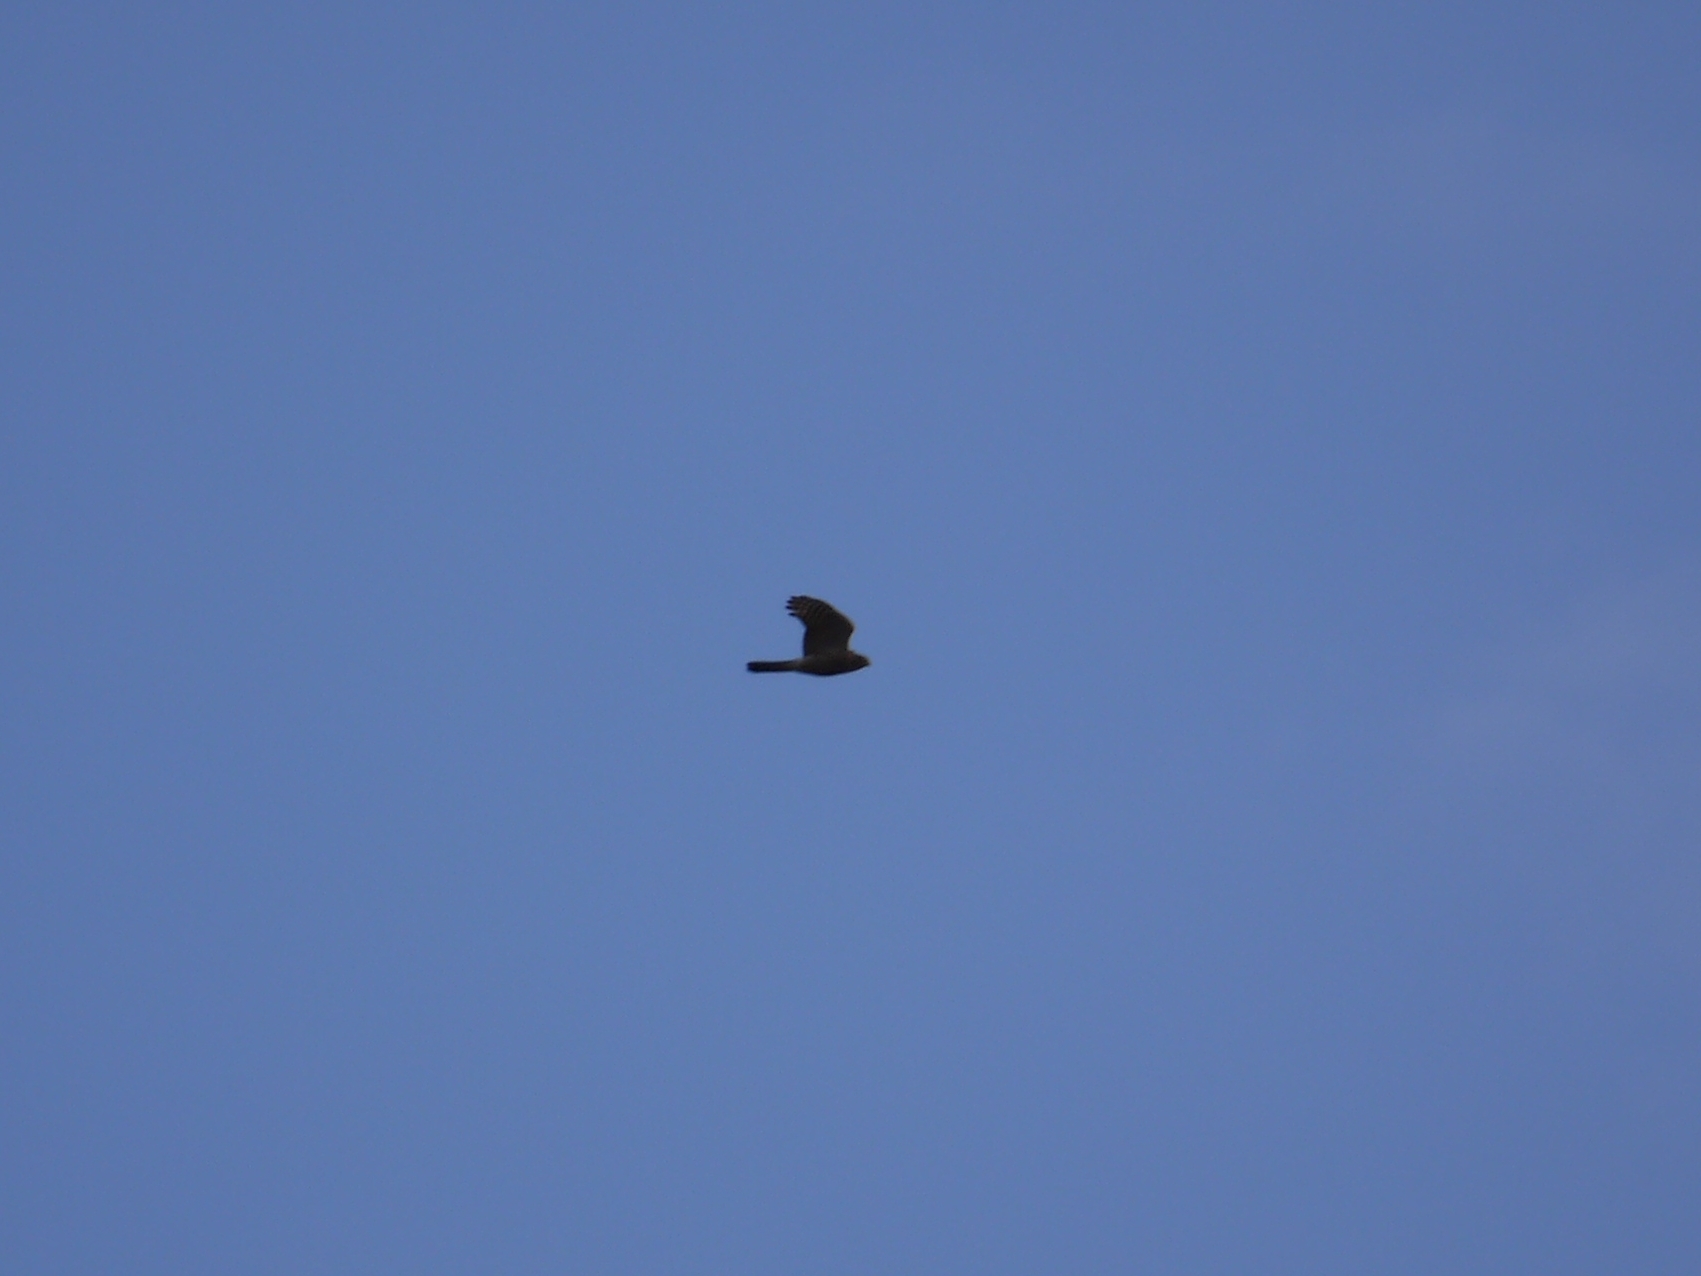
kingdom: Animalia
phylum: Chordata
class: Aves
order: Accipitriformes
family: Accipitridae
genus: Accipiter
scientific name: Accipiter nisus
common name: Eurasian sparrowhawk
